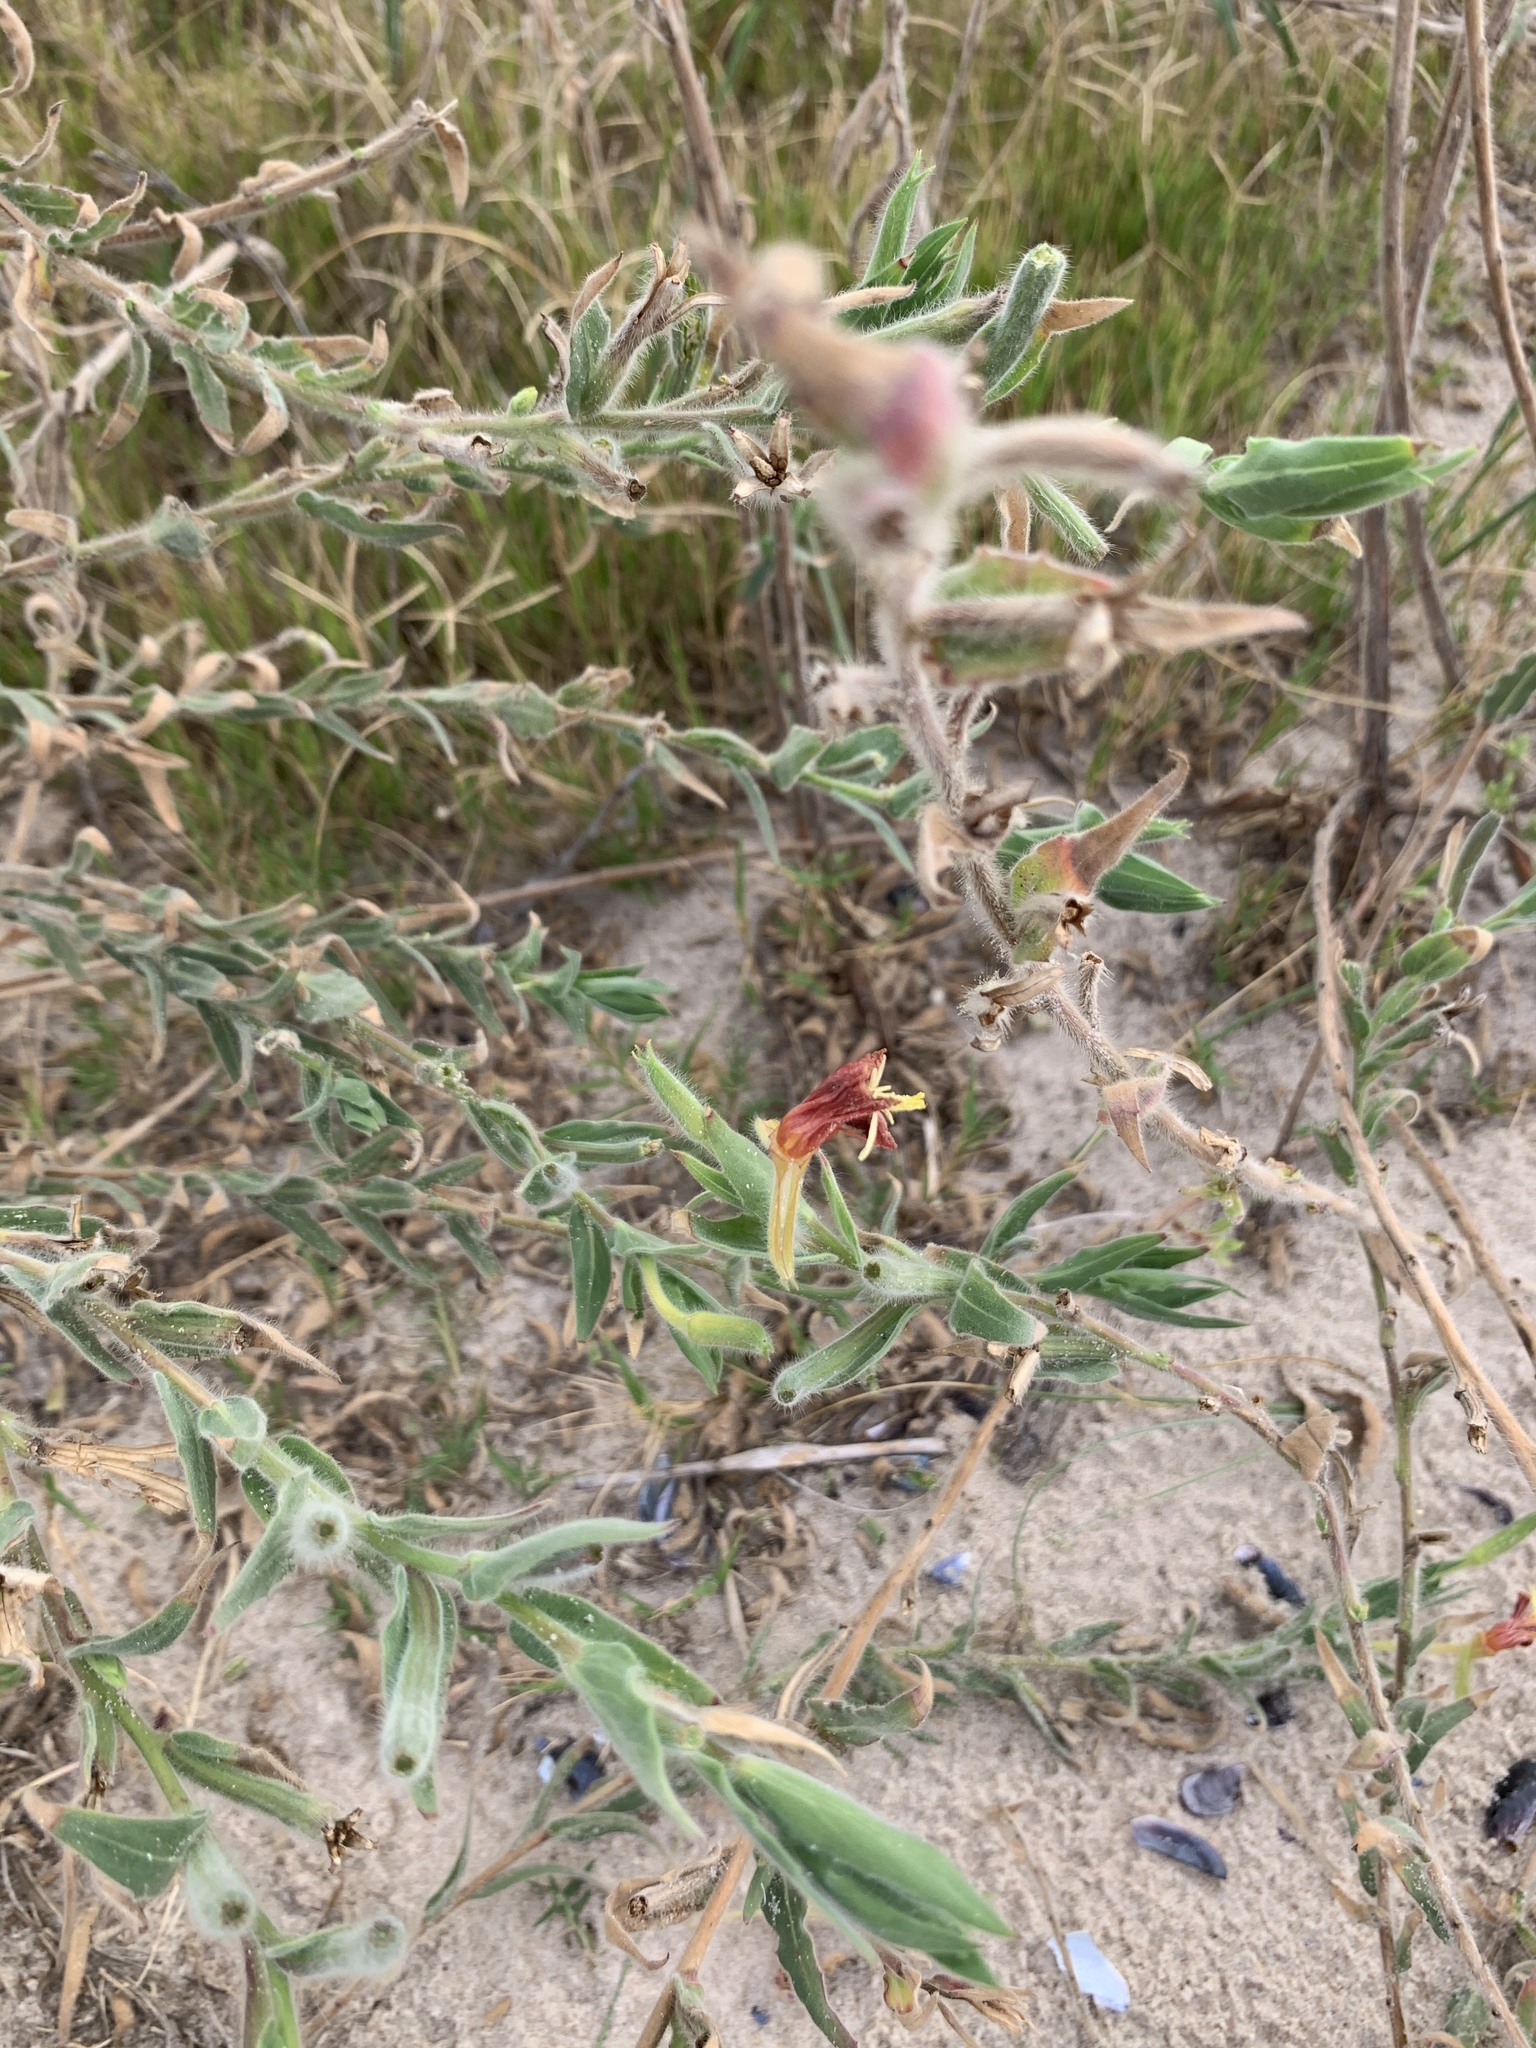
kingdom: Plantae
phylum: Tracheophyta
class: Magnoliopsida
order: Myrtales
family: Onagraceae
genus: Oenothera
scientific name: Oenothera mollissima
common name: Argentine evening primrose
